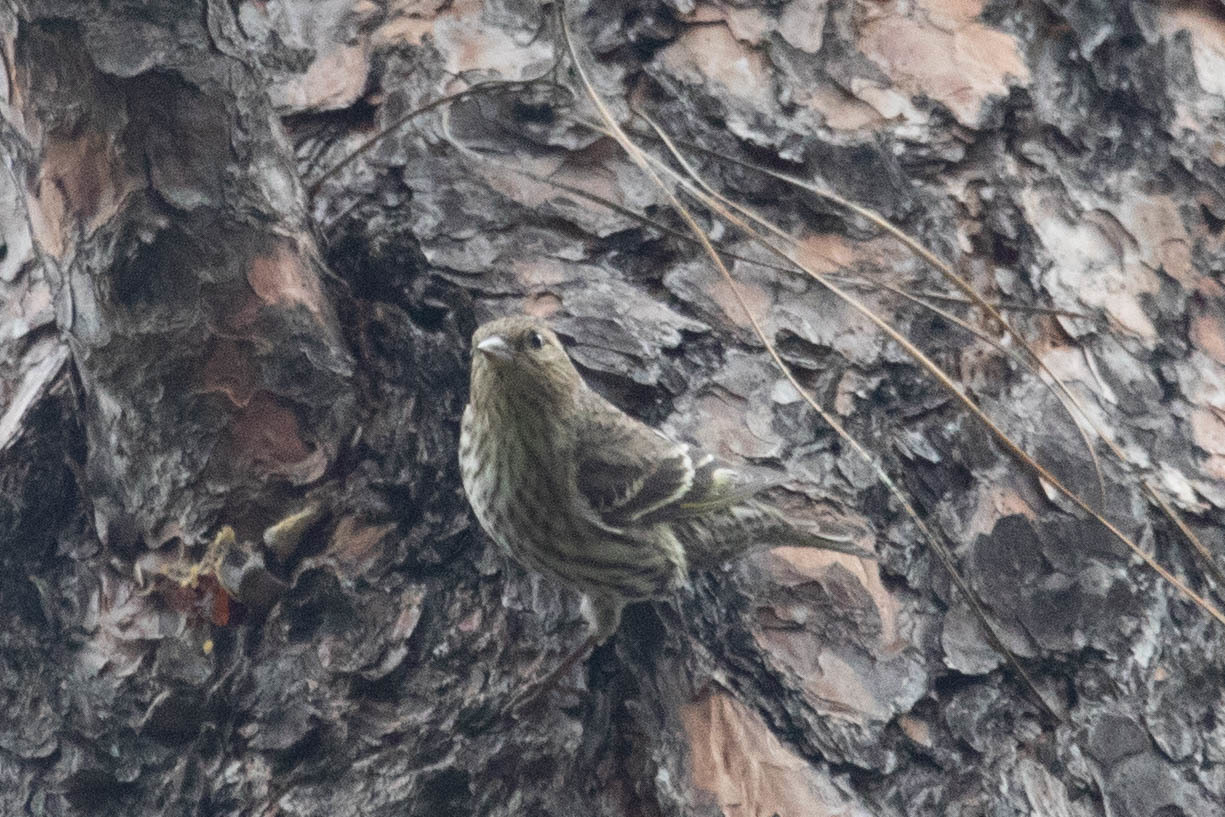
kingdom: Animalia
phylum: Chordata
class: Aves
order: Passeriformes
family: Fringillidae
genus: Spinus
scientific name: Spinus pinus
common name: Pine siskin
